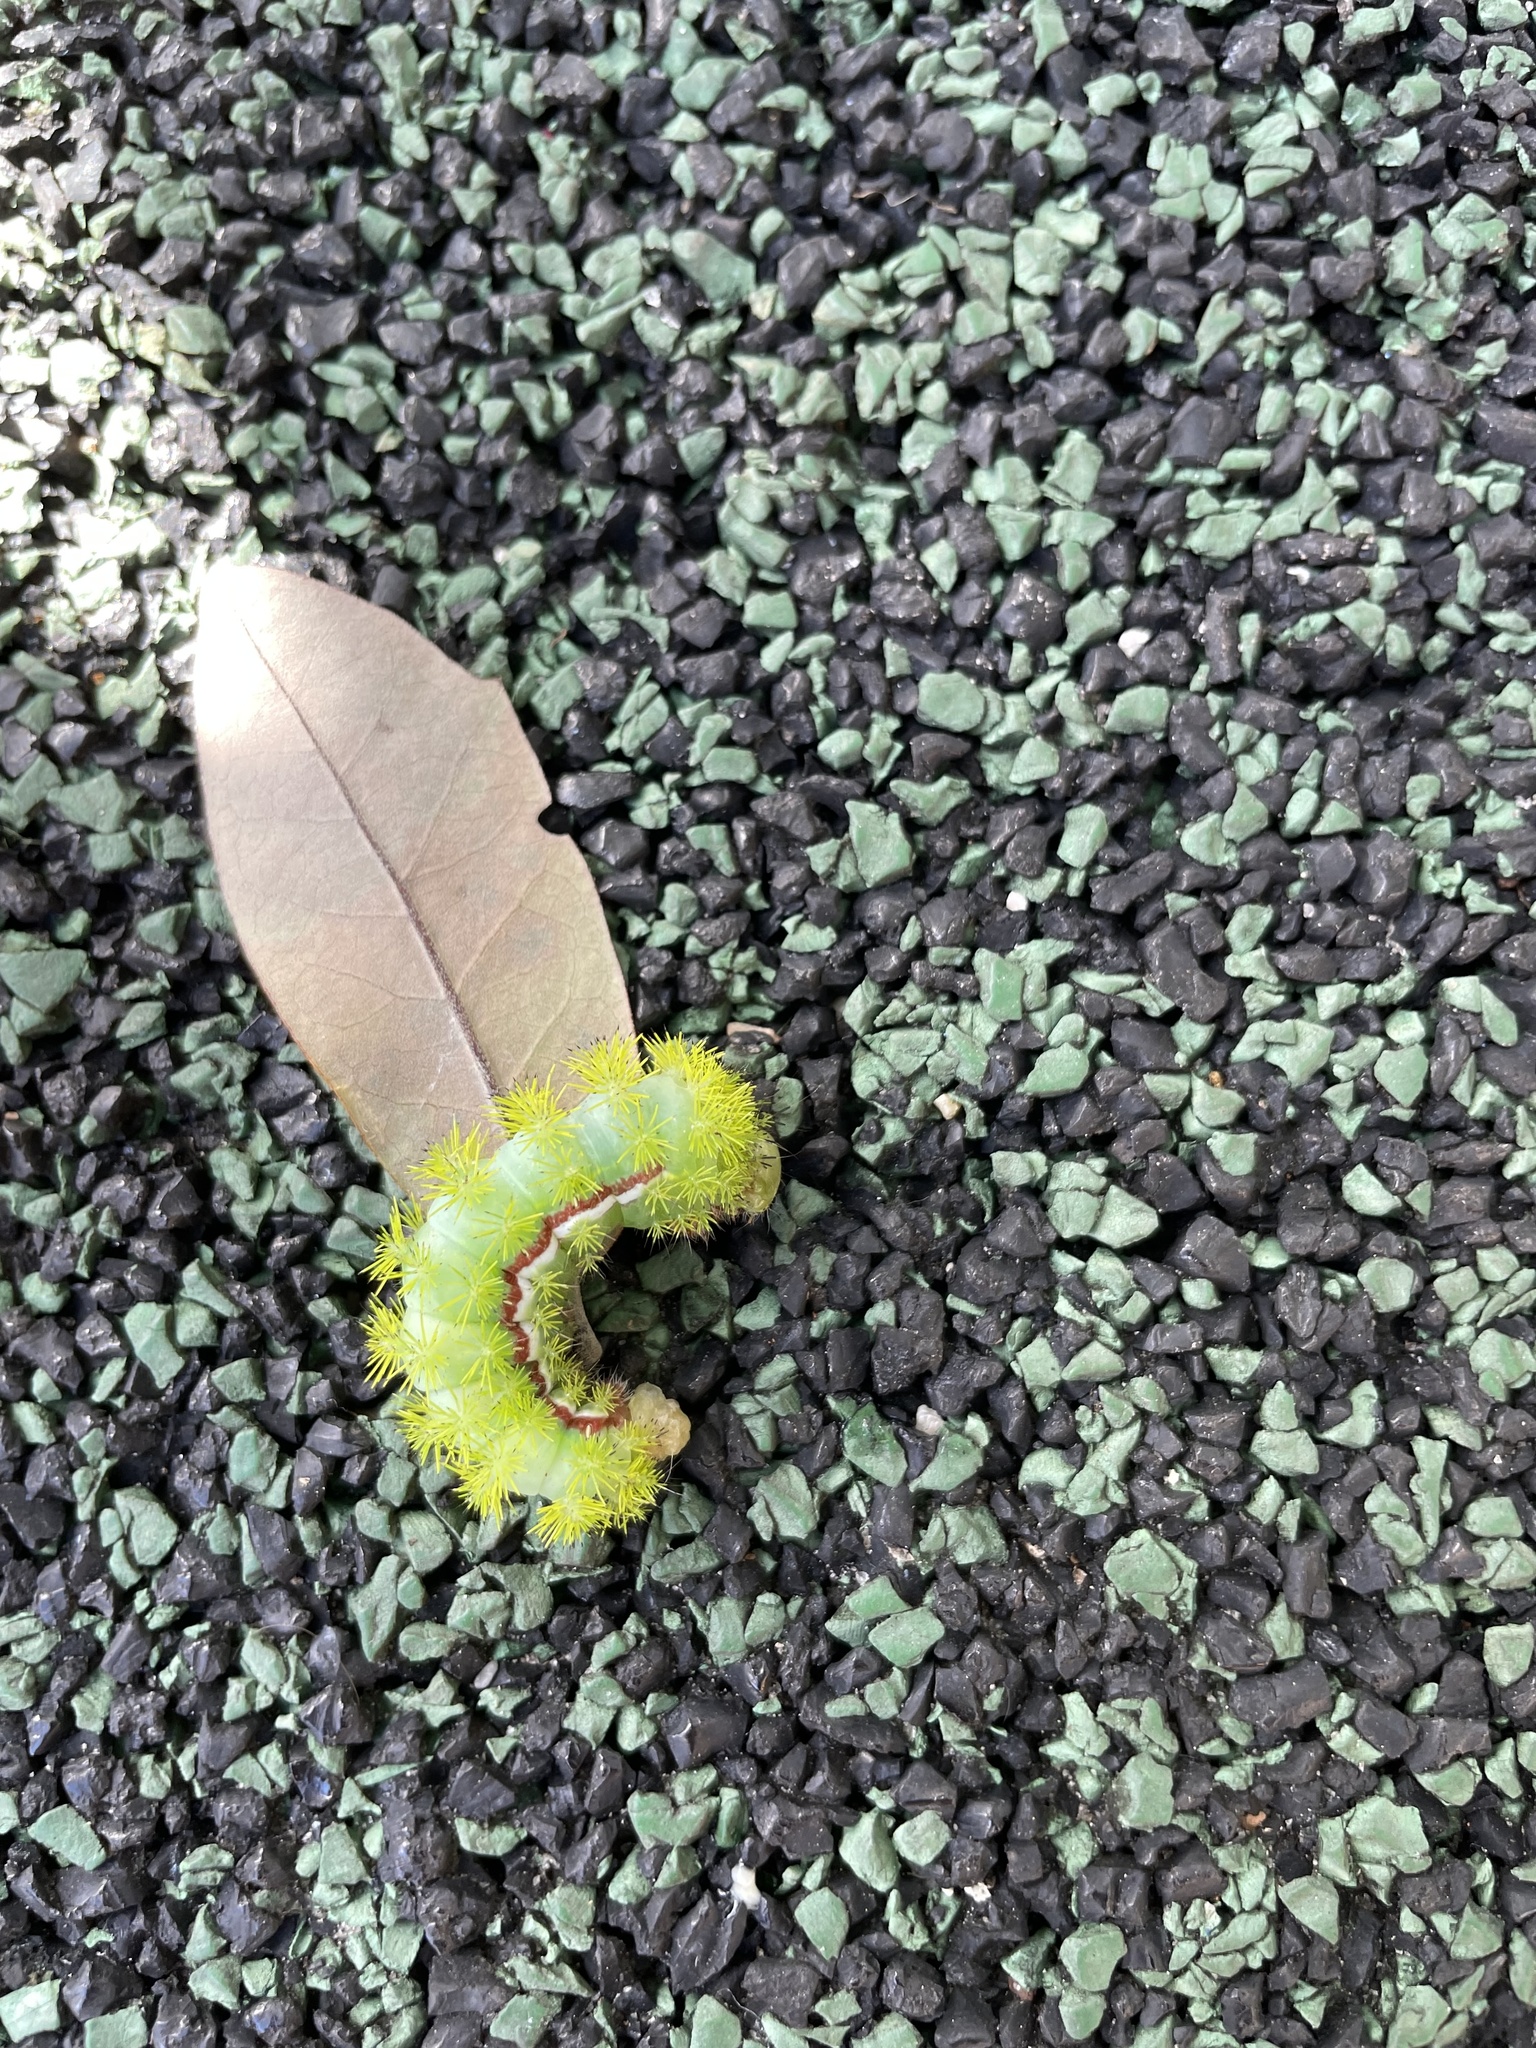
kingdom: Animalia
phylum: Arthropoda
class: Insecta
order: Lepidoptera
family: Saturniidae
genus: Automeris
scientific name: Automeris io
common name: Io moth
